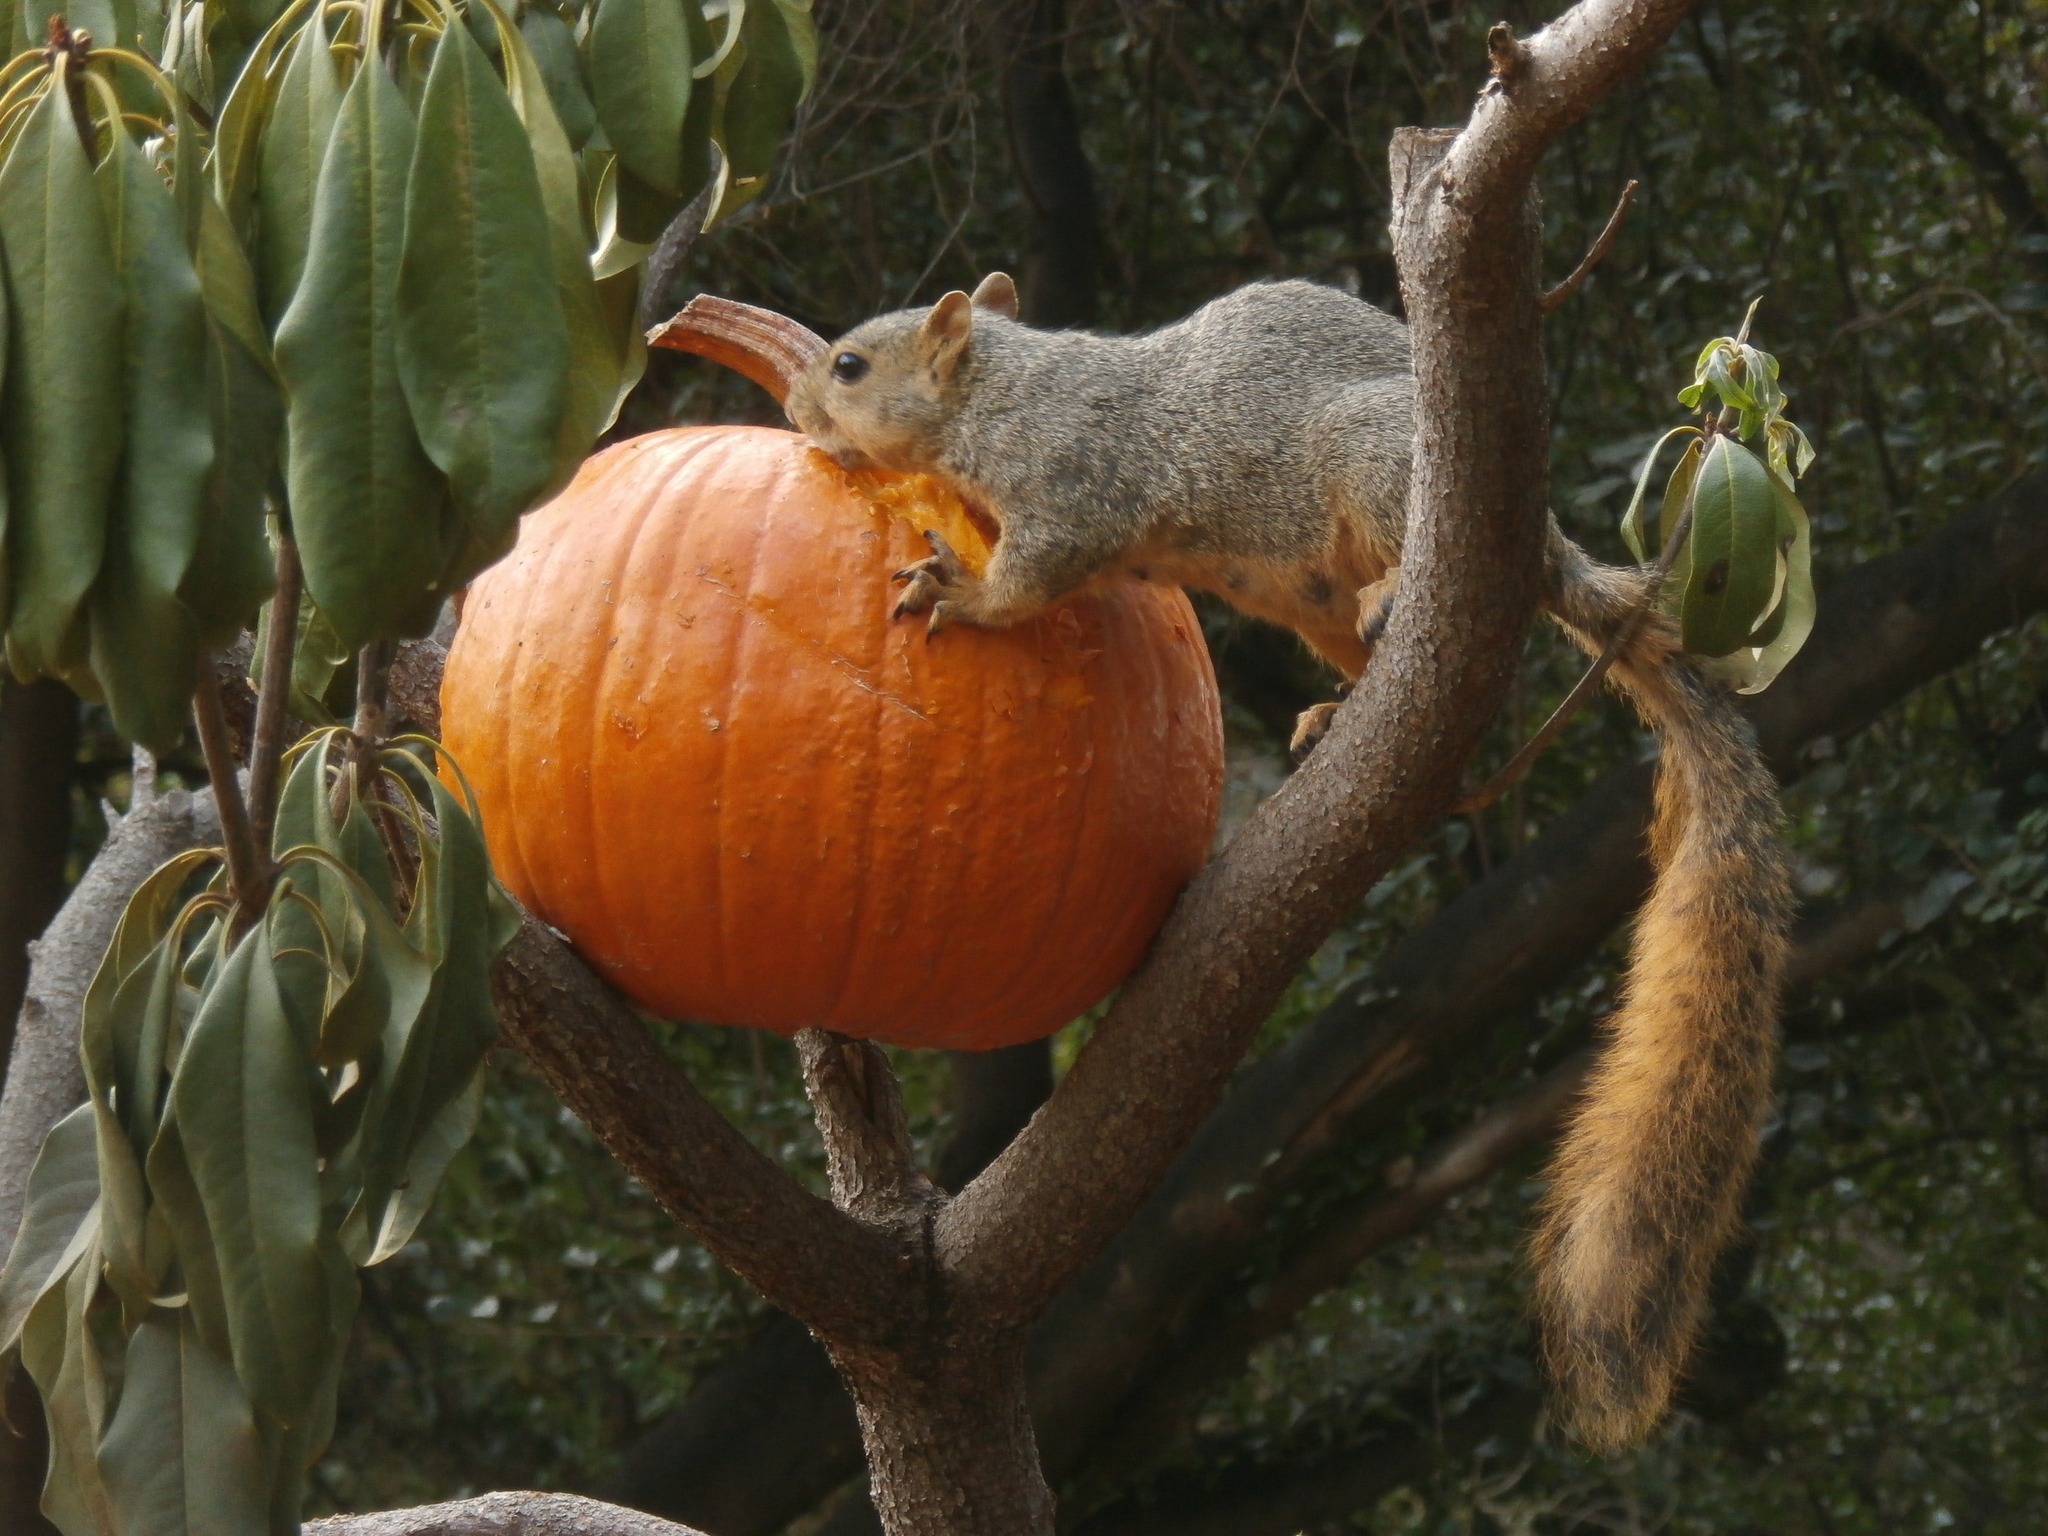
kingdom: Animalia
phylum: Chordata
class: Mammalia
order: Rodentia
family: Sciuridae
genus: Sciurus
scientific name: Sciurus niger
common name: Fox squirrel
